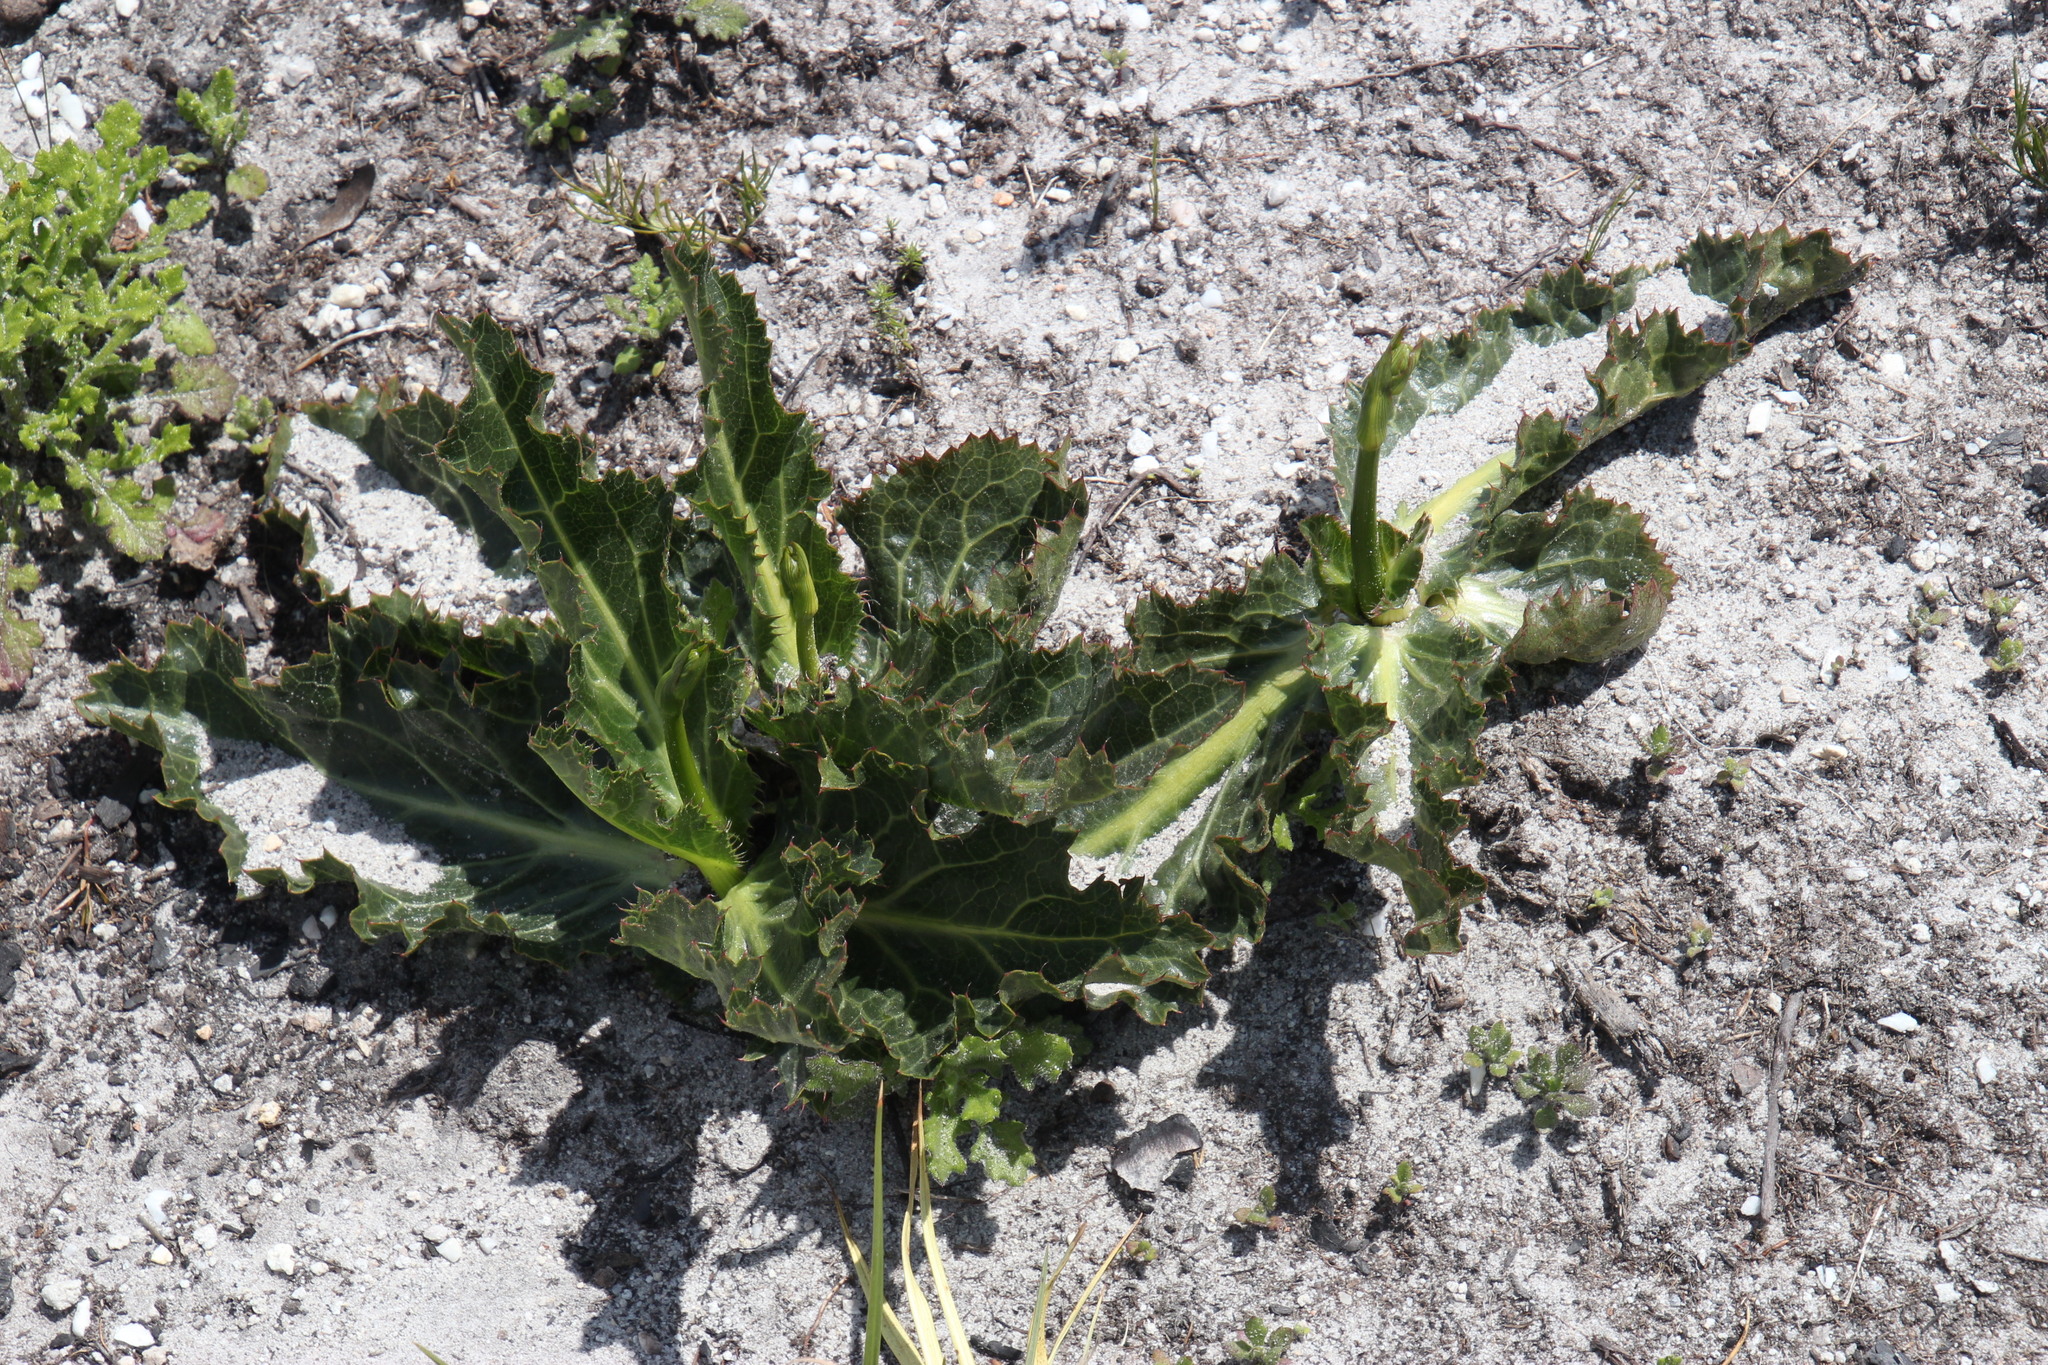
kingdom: Plantae
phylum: Tracheophyta
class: Magnoliopsida
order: Apiales
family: Apiaceae
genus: Lichtensteinia
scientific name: Lichtensteinia lacera
